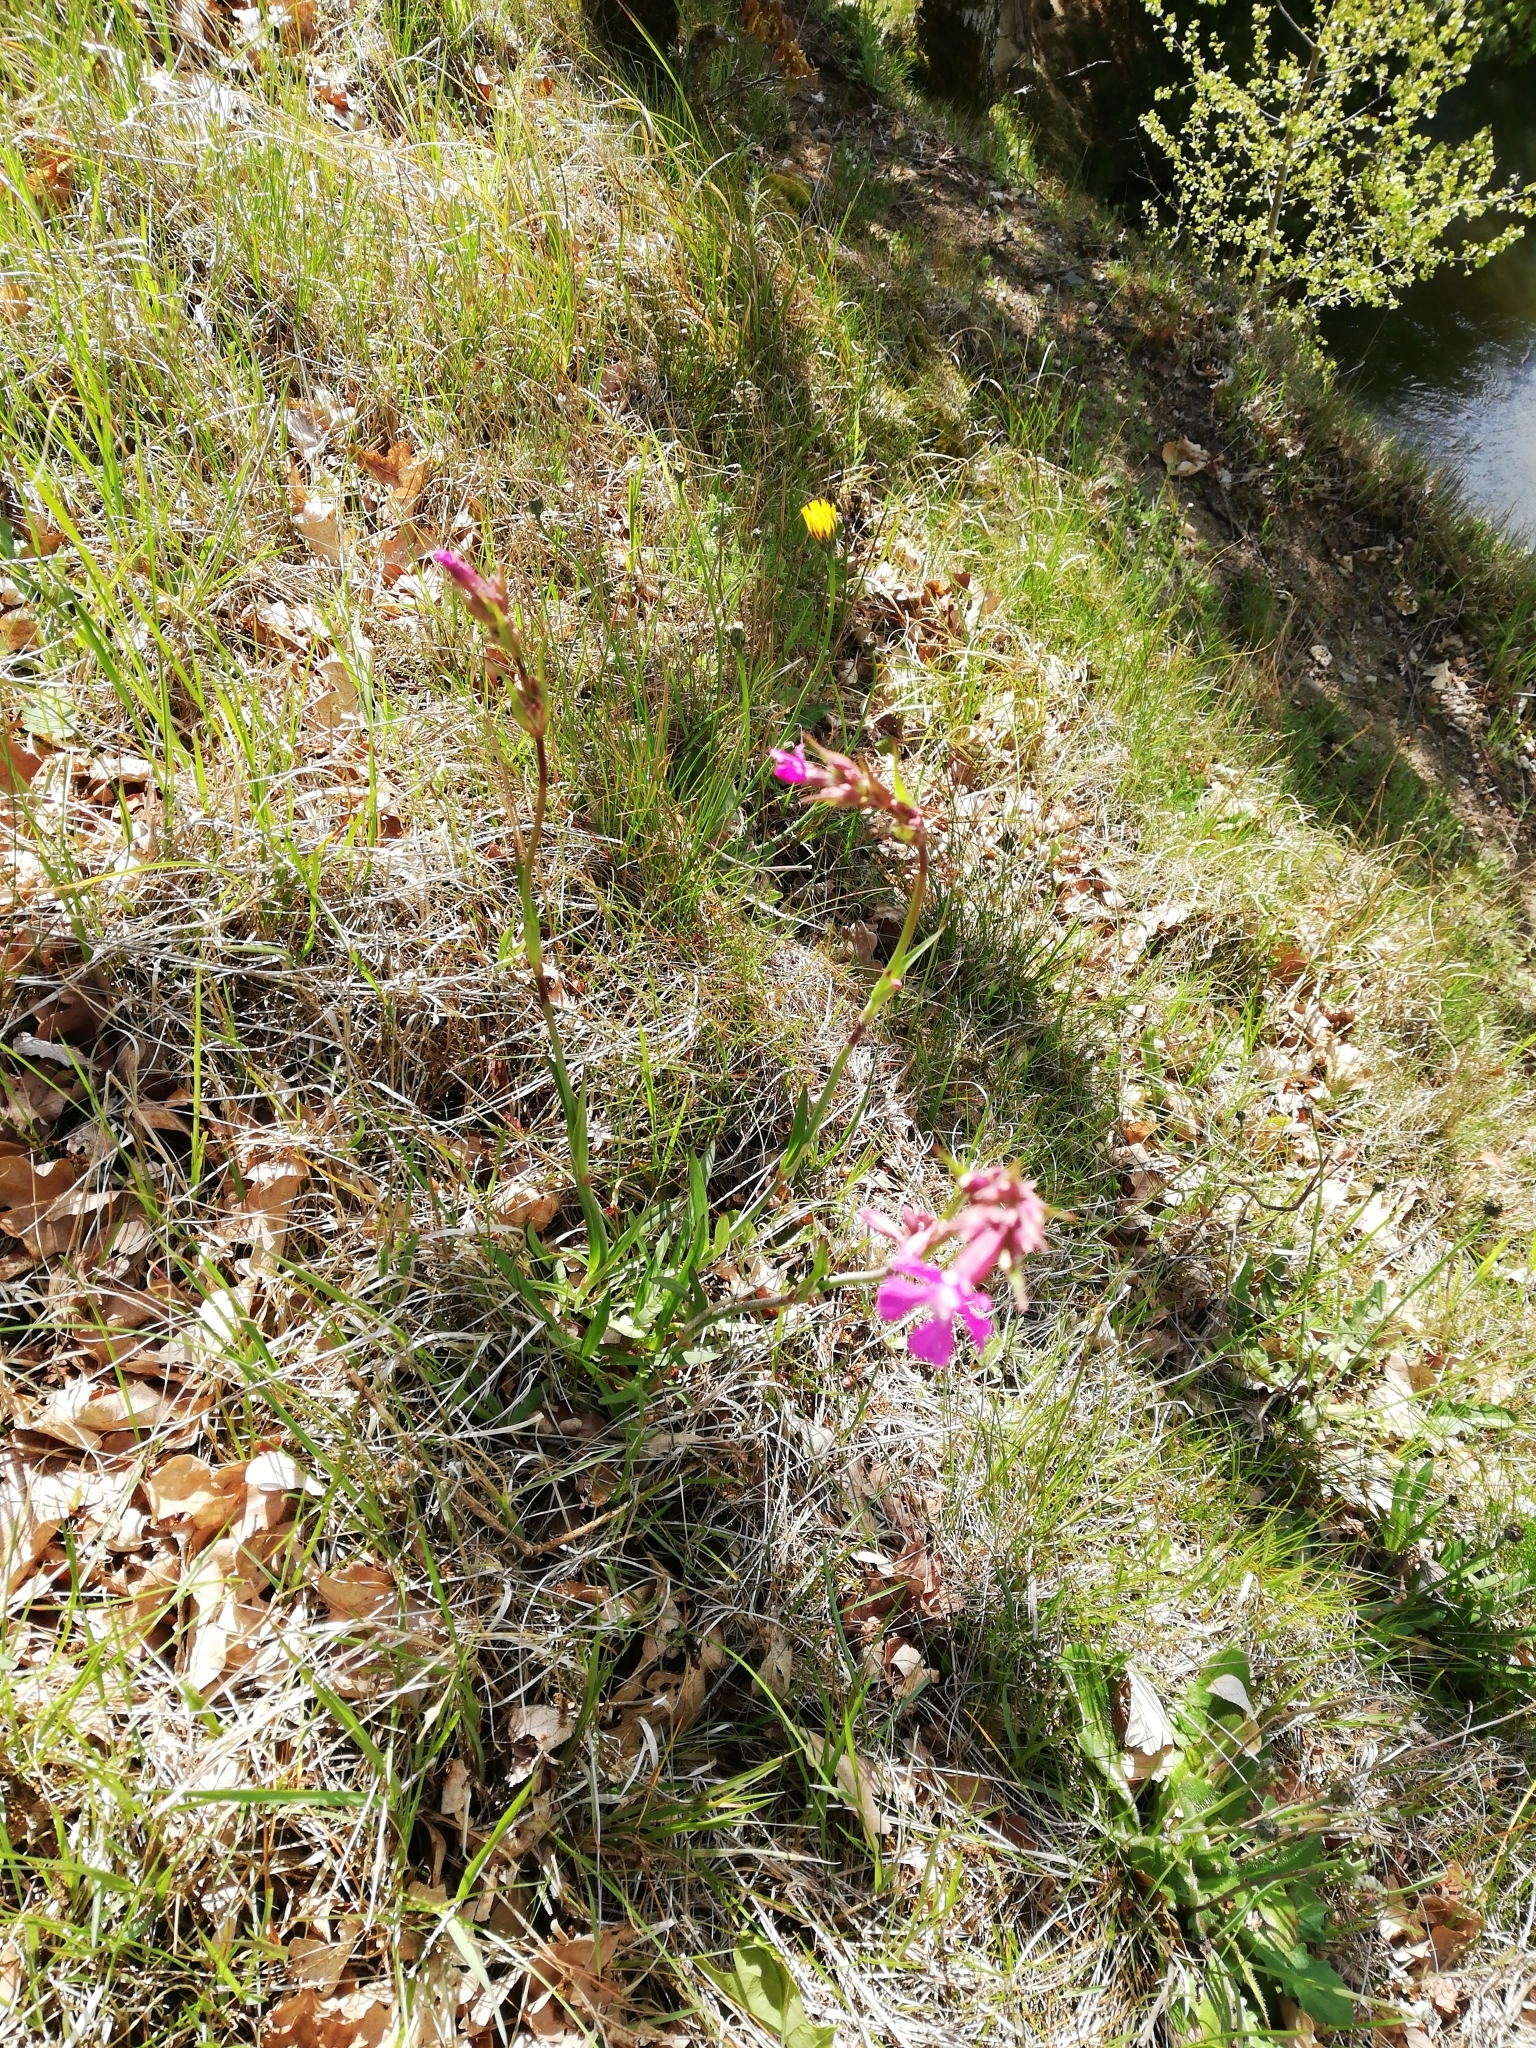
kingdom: Plantae
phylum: Tracheophyta
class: Magnoliopsida
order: Caryophyllales
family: Caryophyllaceae
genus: Viscaria
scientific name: Viscaria vulgaris
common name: Clammy campion
